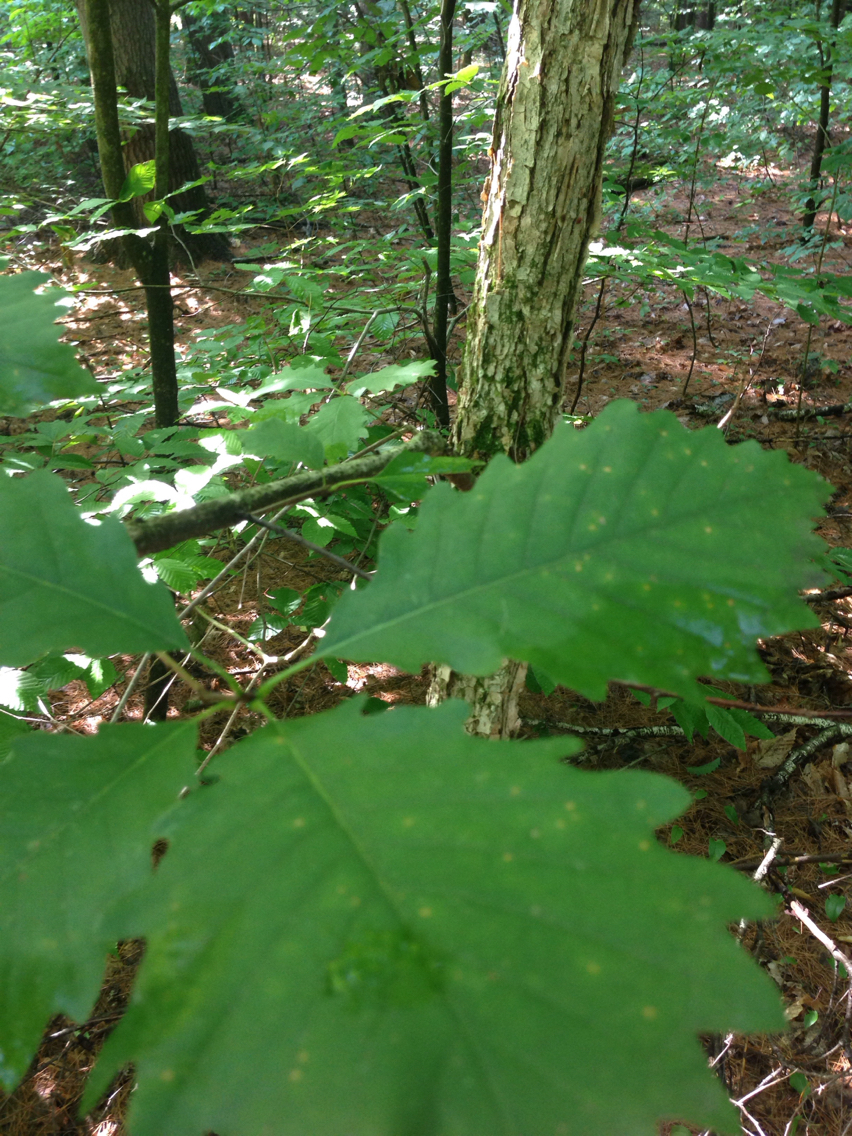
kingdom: Plantae
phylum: Tracheophyta
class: Magnoliopsida
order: Fagales
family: Fagaceae
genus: Quercus
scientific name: Quercus muehlenbergii
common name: Chinkapin oak
